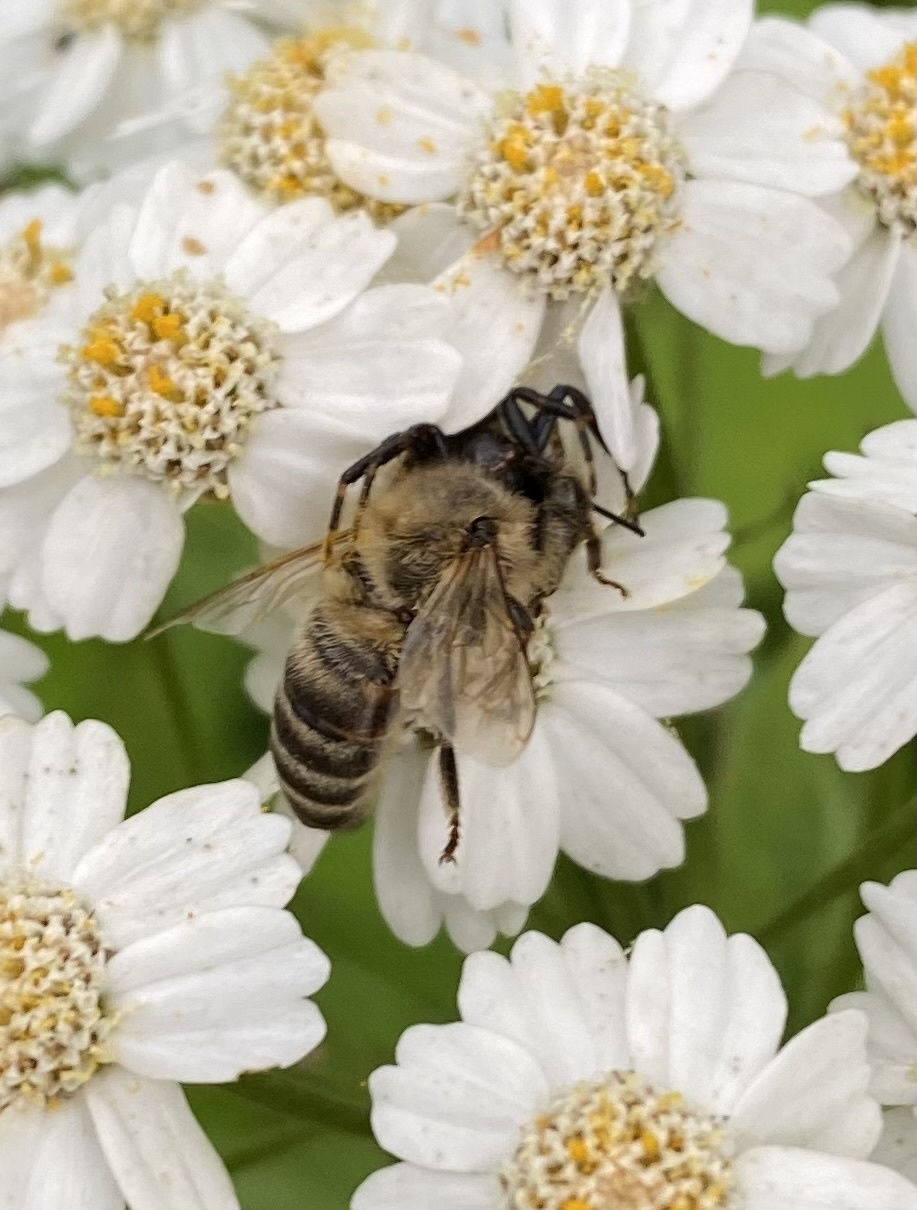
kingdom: Animalia
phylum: Arthropoda
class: Insecta
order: Hymenoptera
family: Apidae
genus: Apis
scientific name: Apis mellifera
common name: Honey bee
